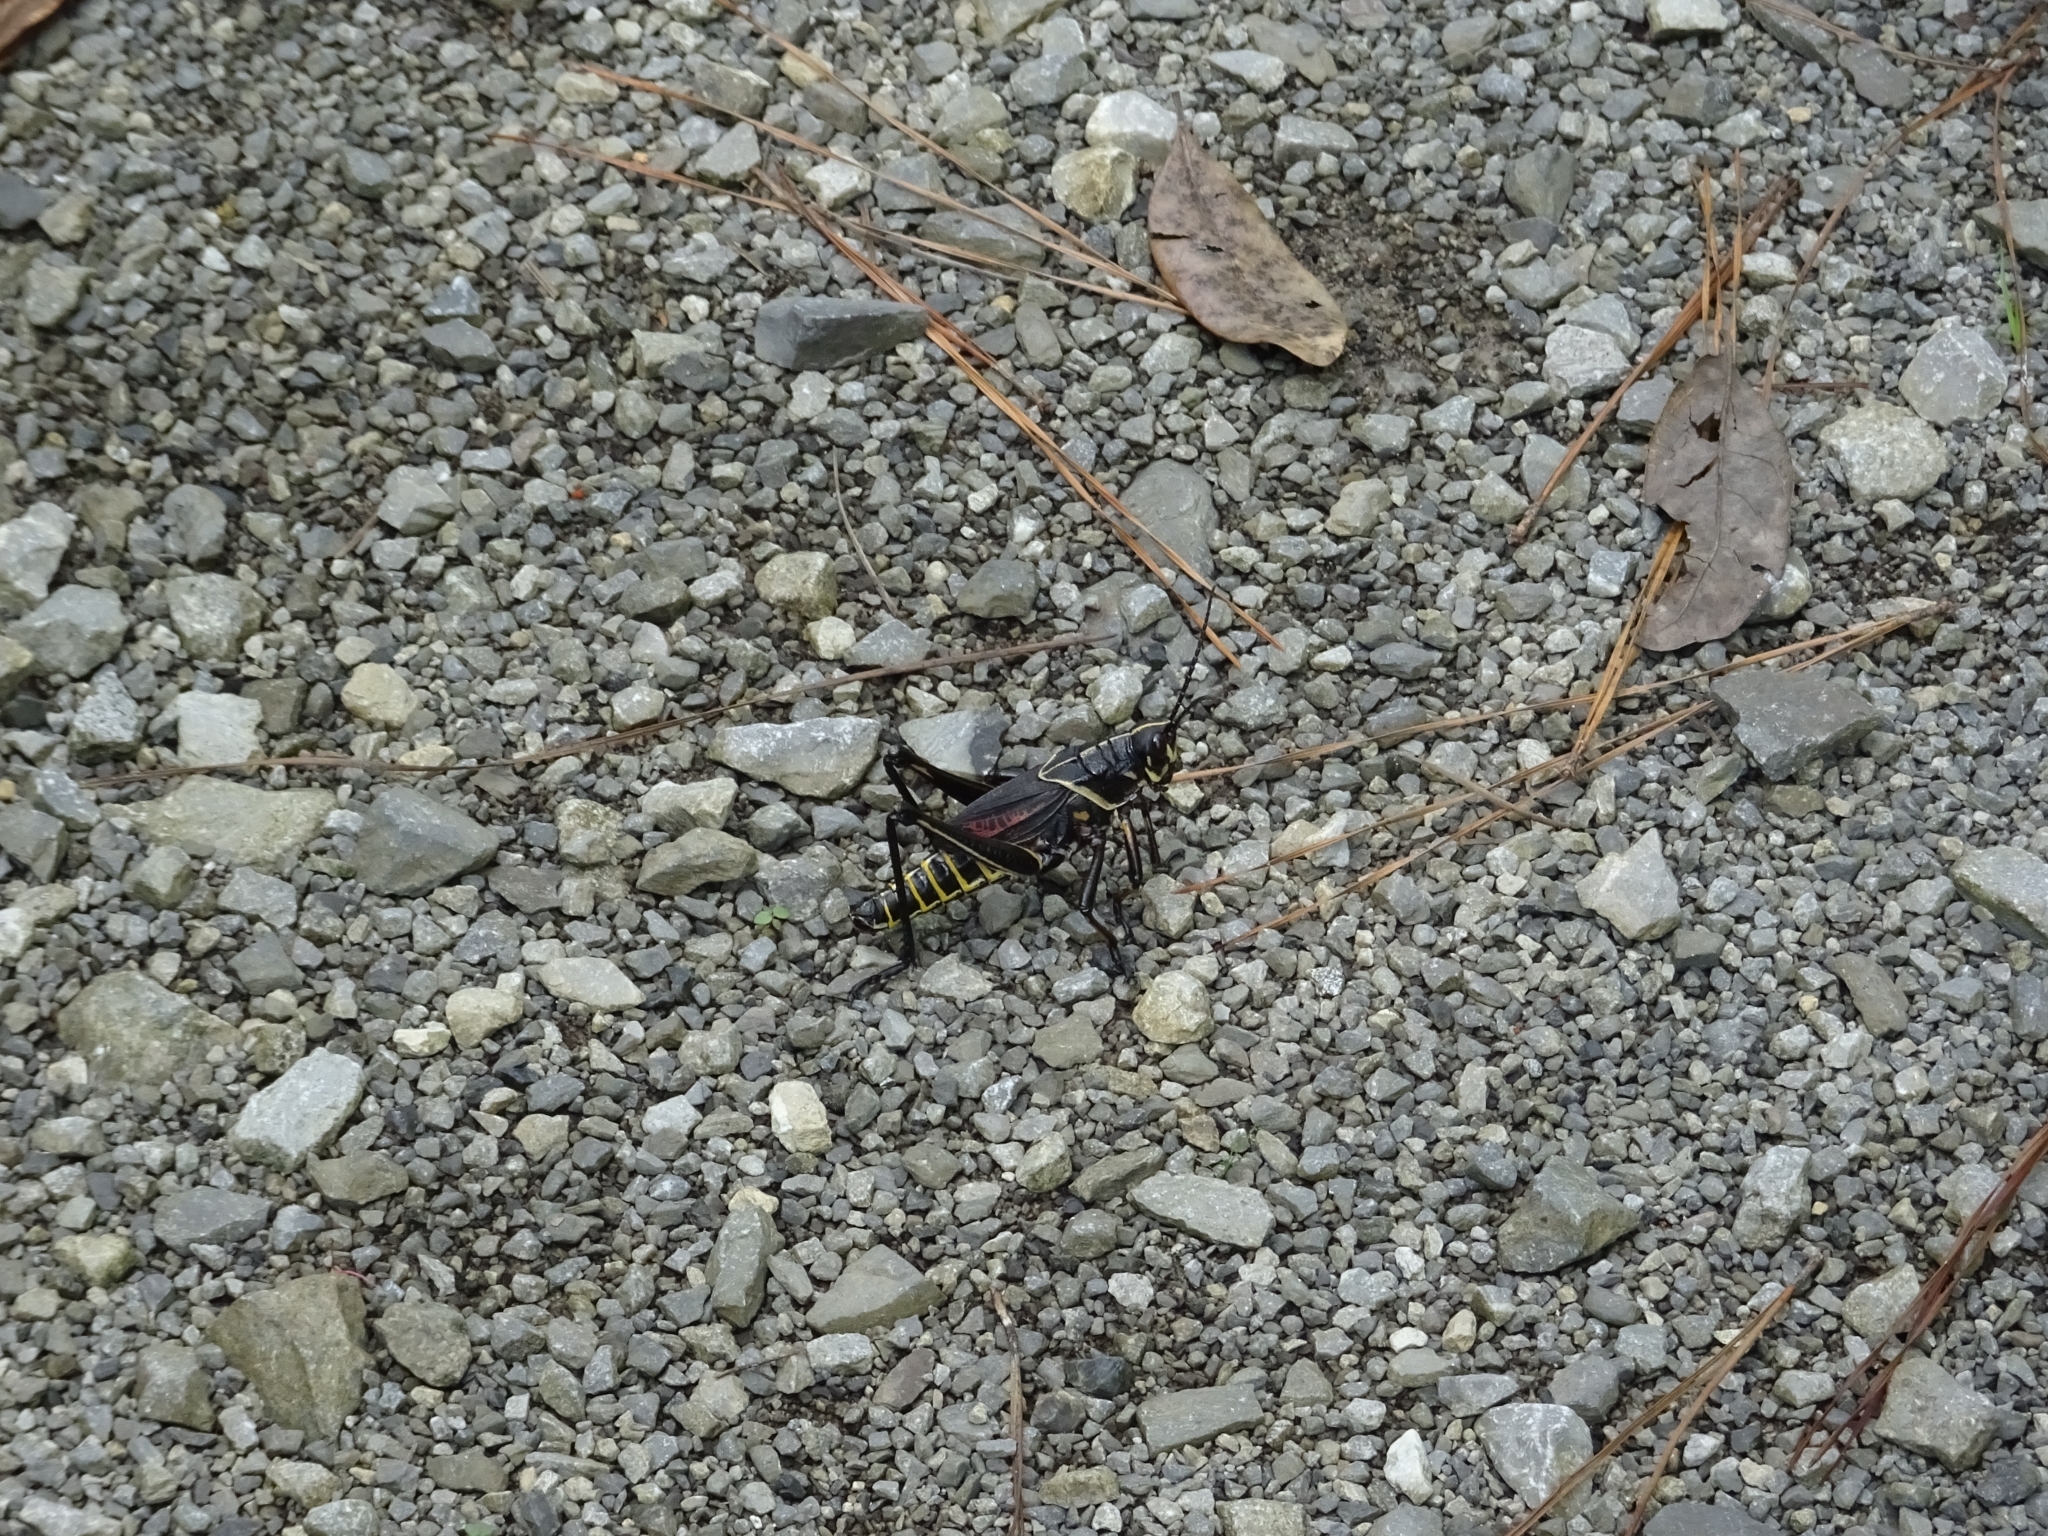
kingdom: Animalia
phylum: Arthropoda
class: Insecta
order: Orthoptera
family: Romaleidae
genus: Romalea
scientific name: Romalea microptera
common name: Eastern lubber grasshopper
